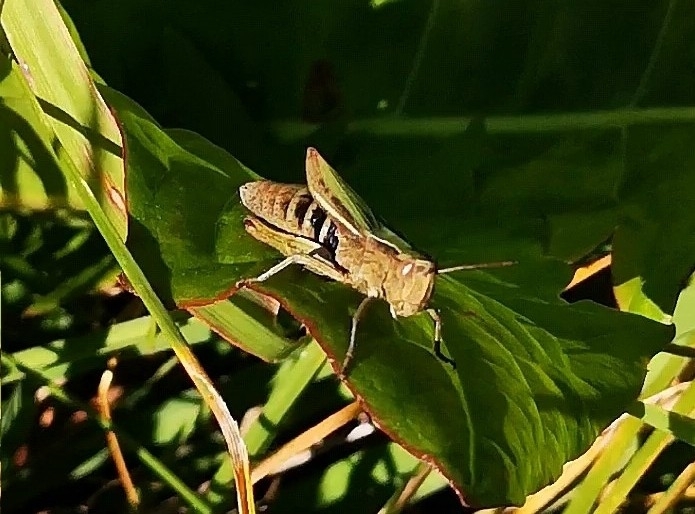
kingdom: Animalia
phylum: Arthropoda
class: Insecta
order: Orthoptera
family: Acrididae
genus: Chorthippus
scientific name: Chorthippus dorsatus
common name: Steppe grasshopper
